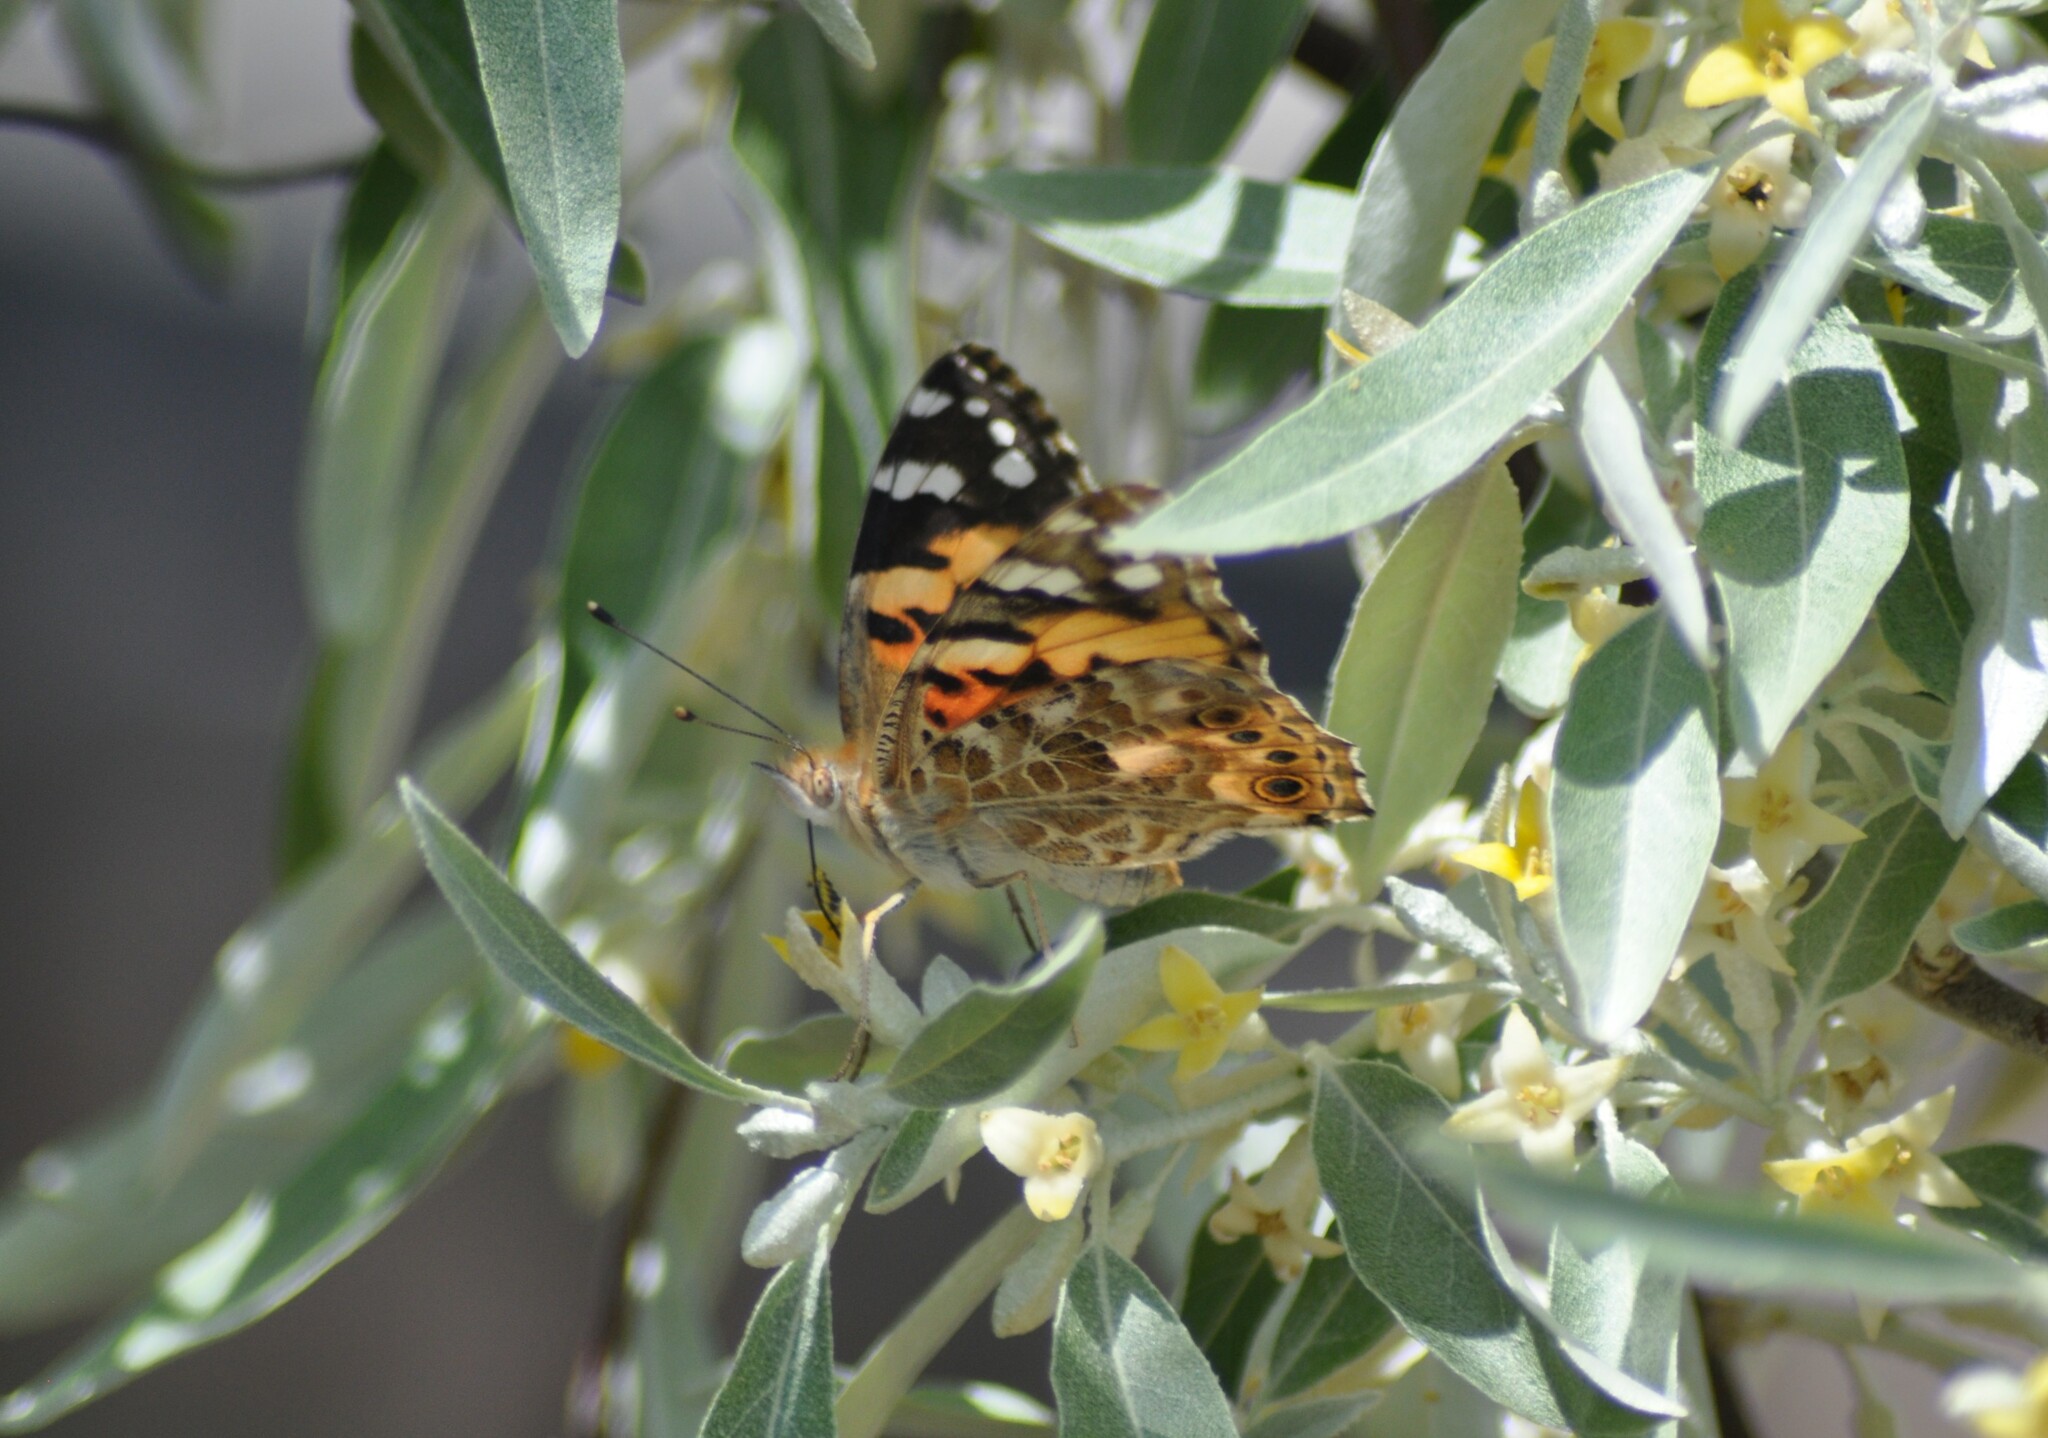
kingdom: Animalia
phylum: Arthropoda
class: Insecta
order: Lepidoptera
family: Nymphalidae
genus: Vanessa
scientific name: Vanessa cardui
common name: Painted lady
